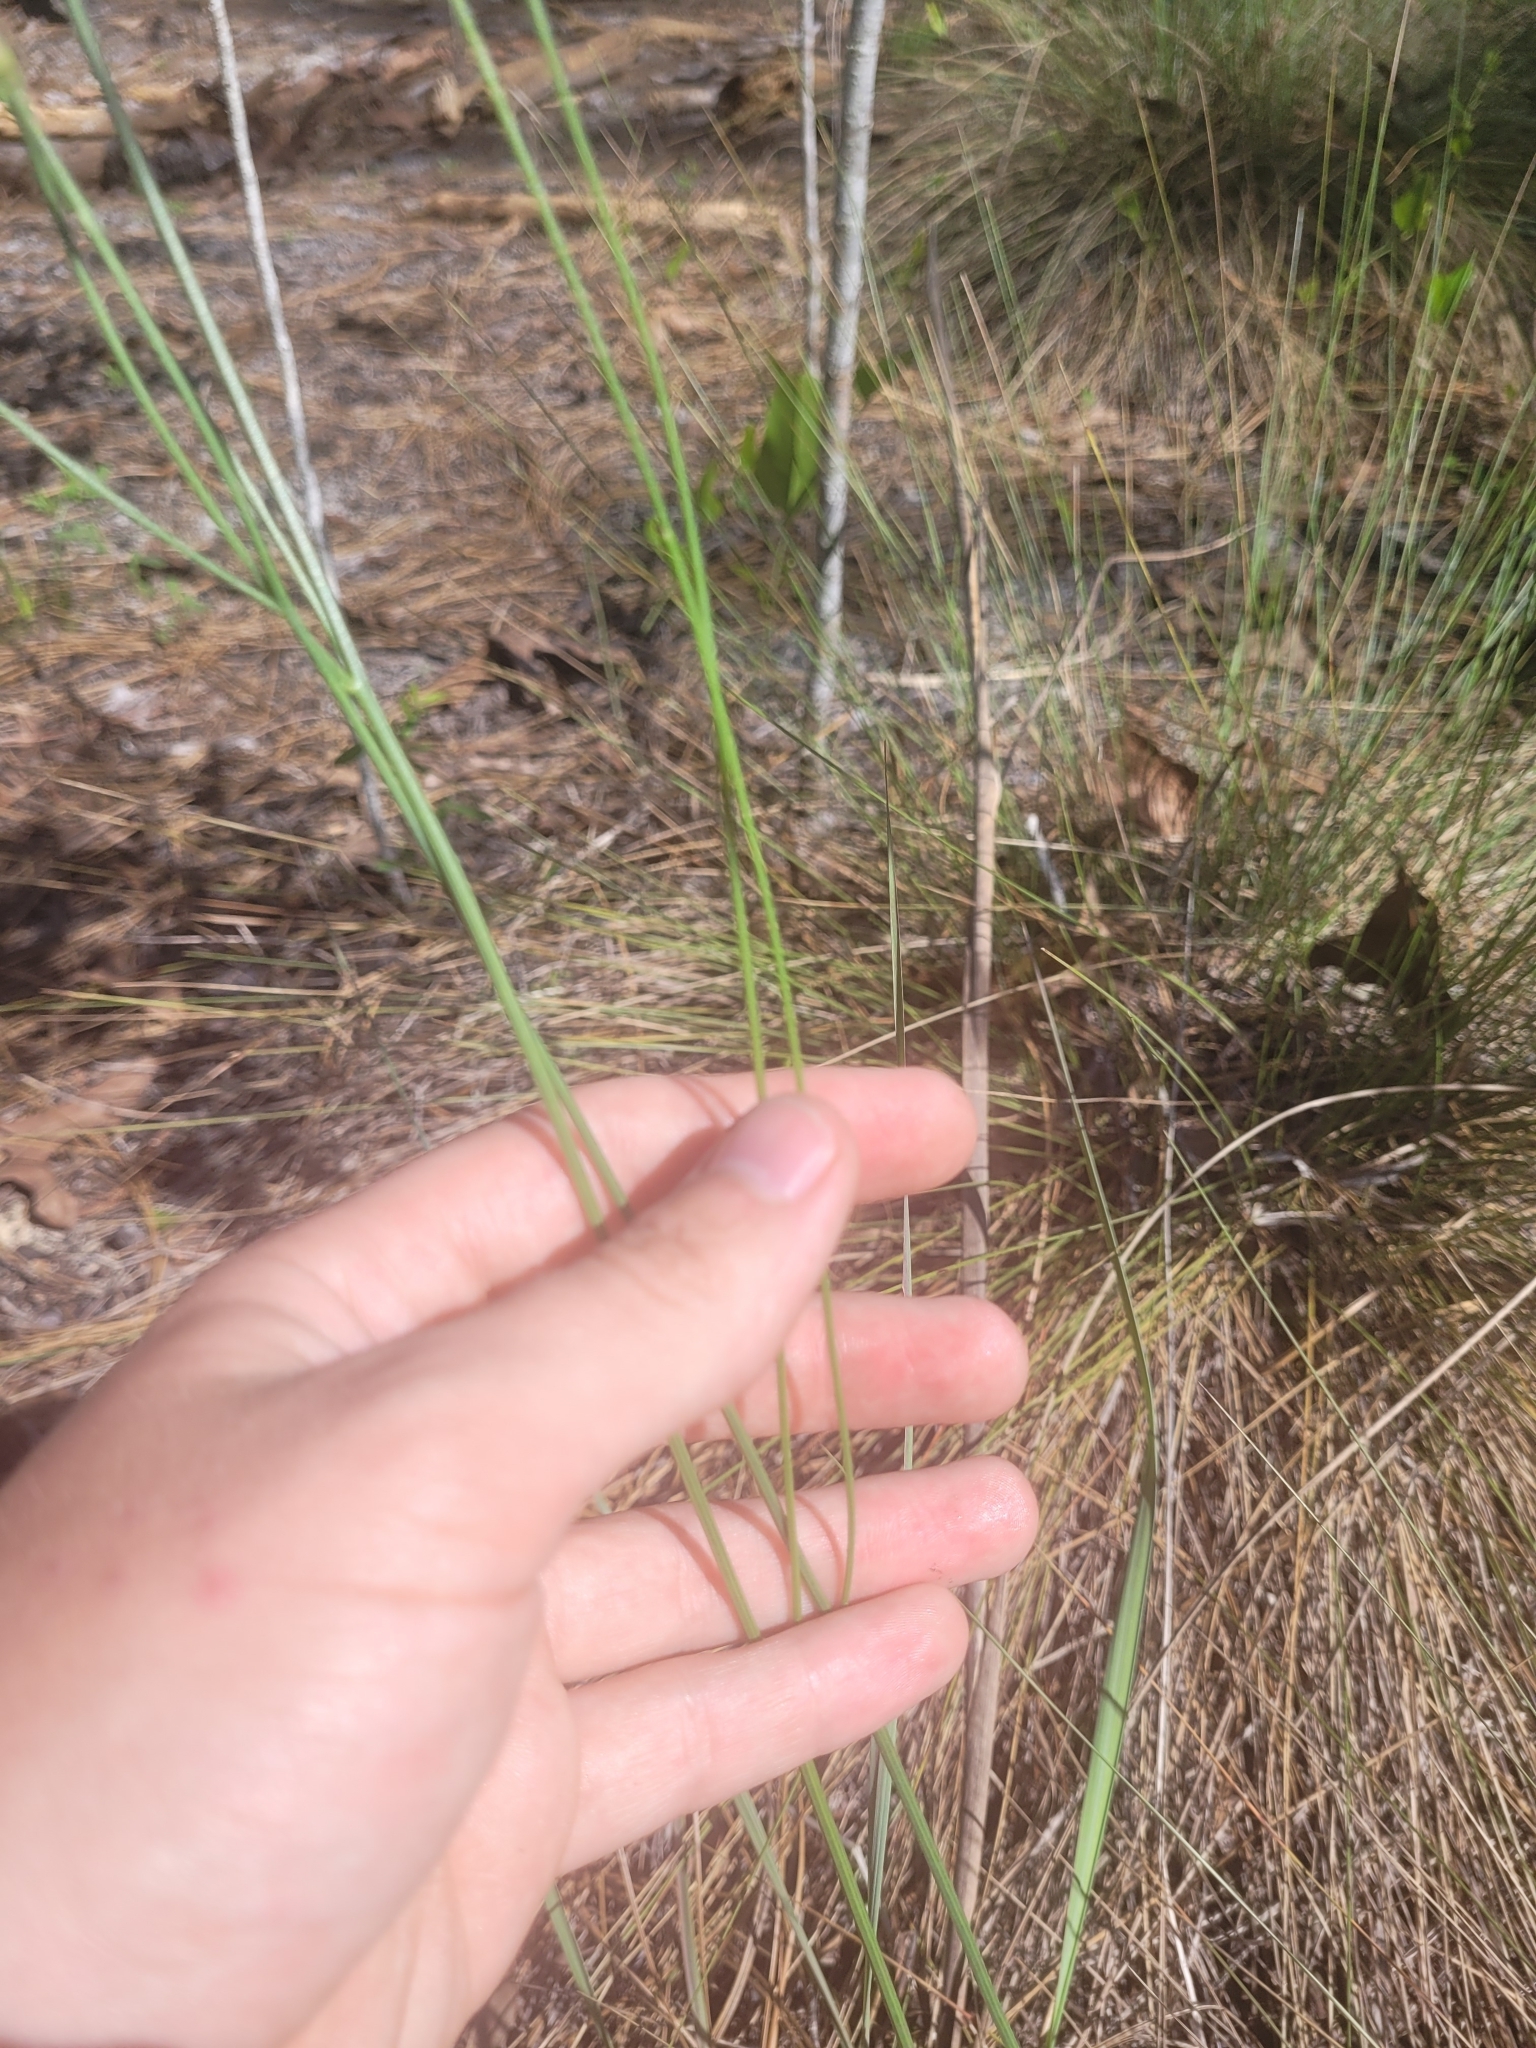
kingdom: Plantae
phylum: Tracheophyta
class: Magnoliopsida
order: Asterales
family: Asteraceae
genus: Lygodesmia
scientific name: Lygodesmia aphylla
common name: Rose-rush
